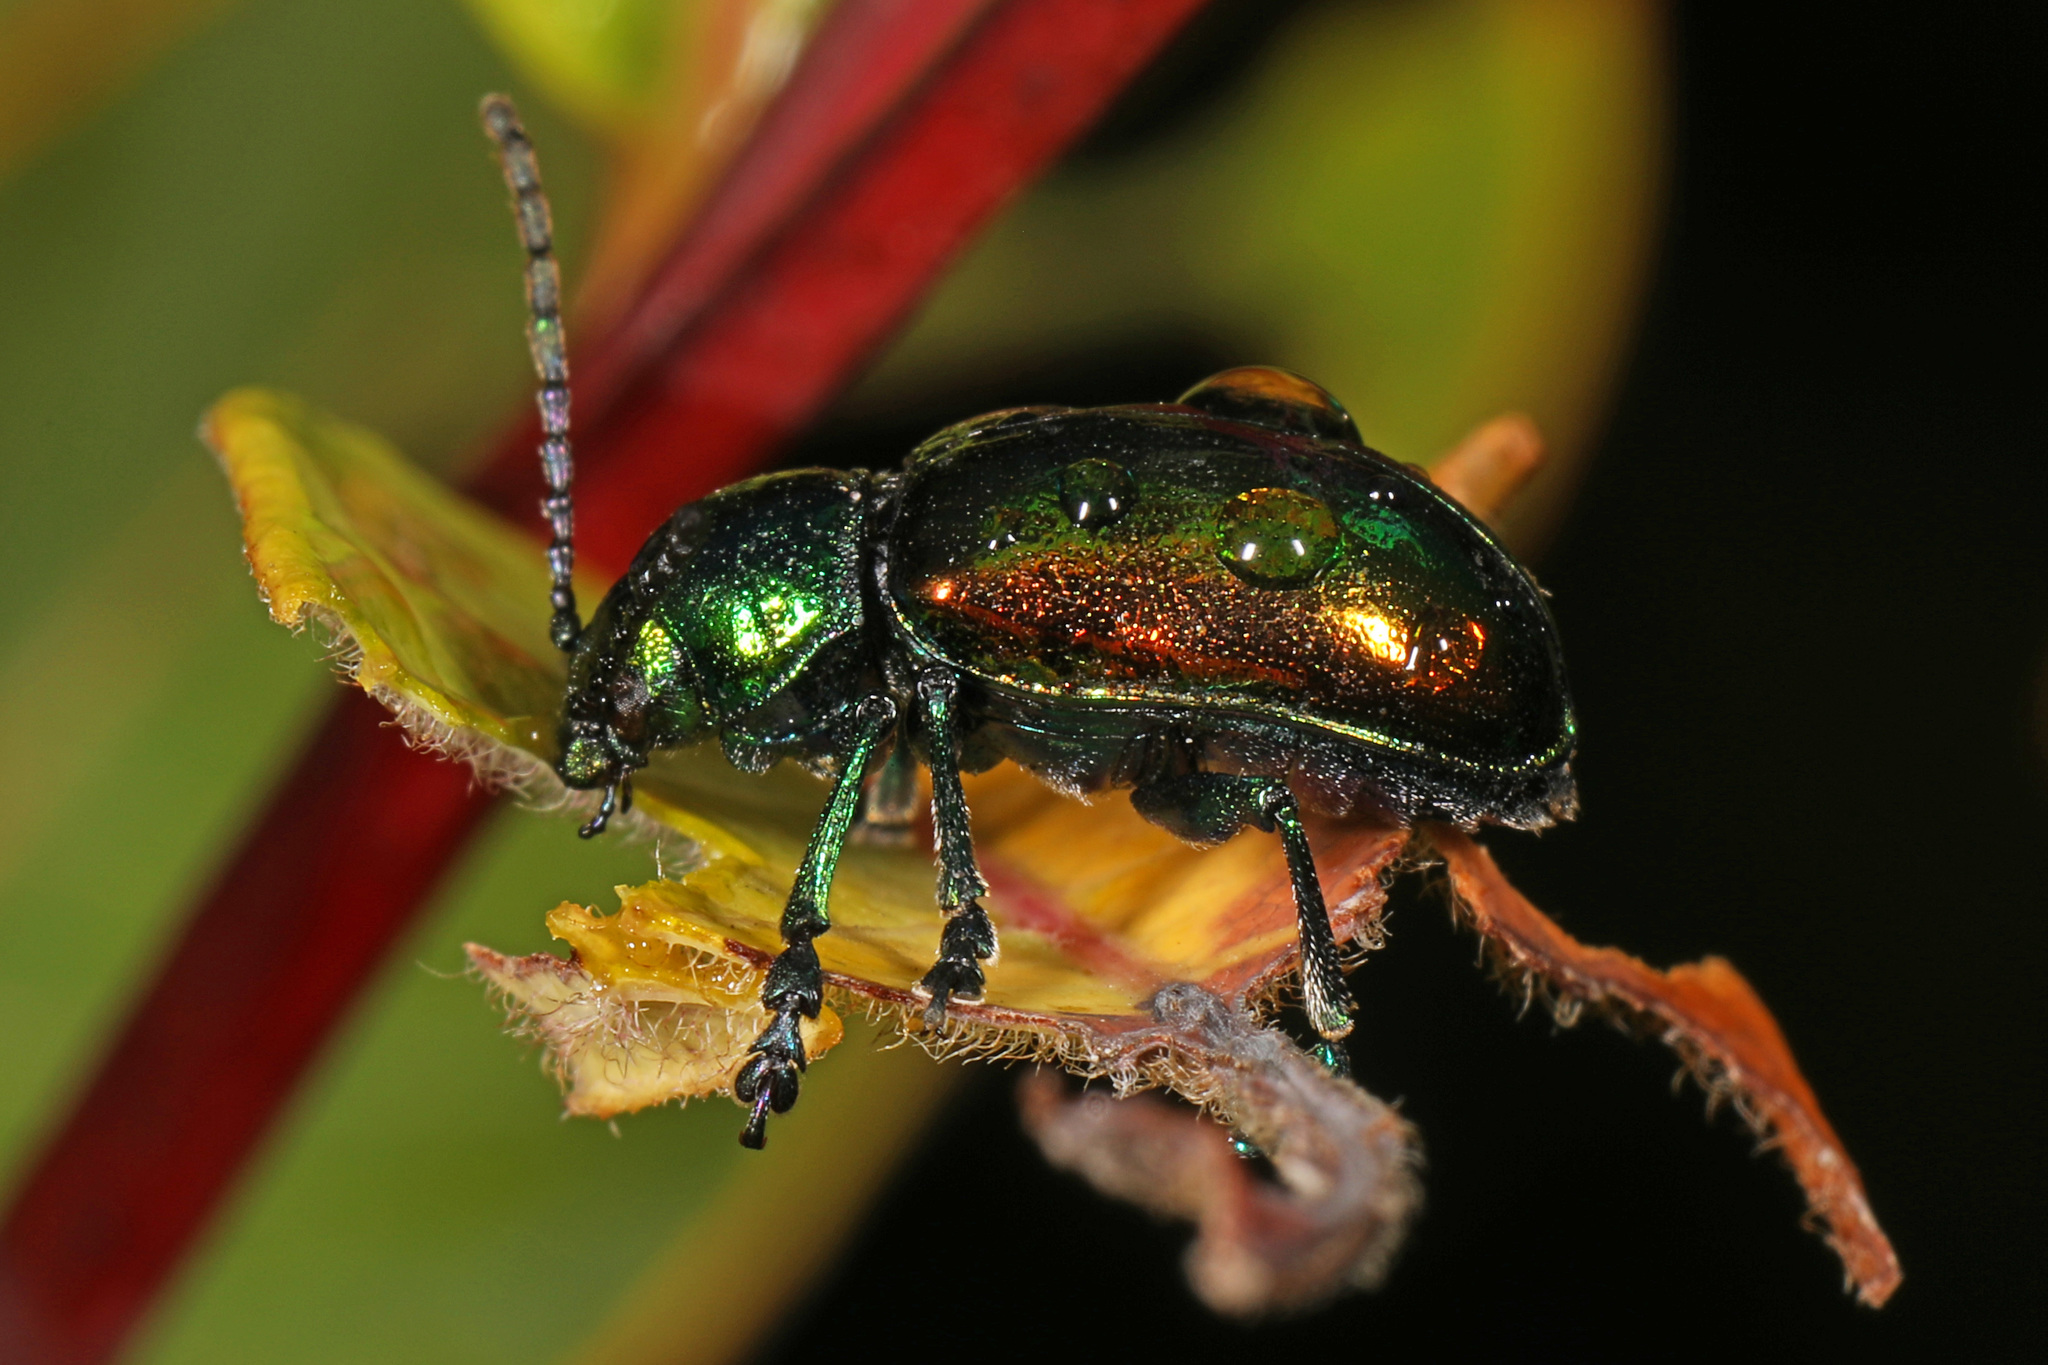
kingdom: Animalia
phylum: Arthropoda
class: Insecta
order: Coleoptera
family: Chrysomelidae
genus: Chrysochus
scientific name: Chrysochus auratus
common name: Dogbane leaf beetle
